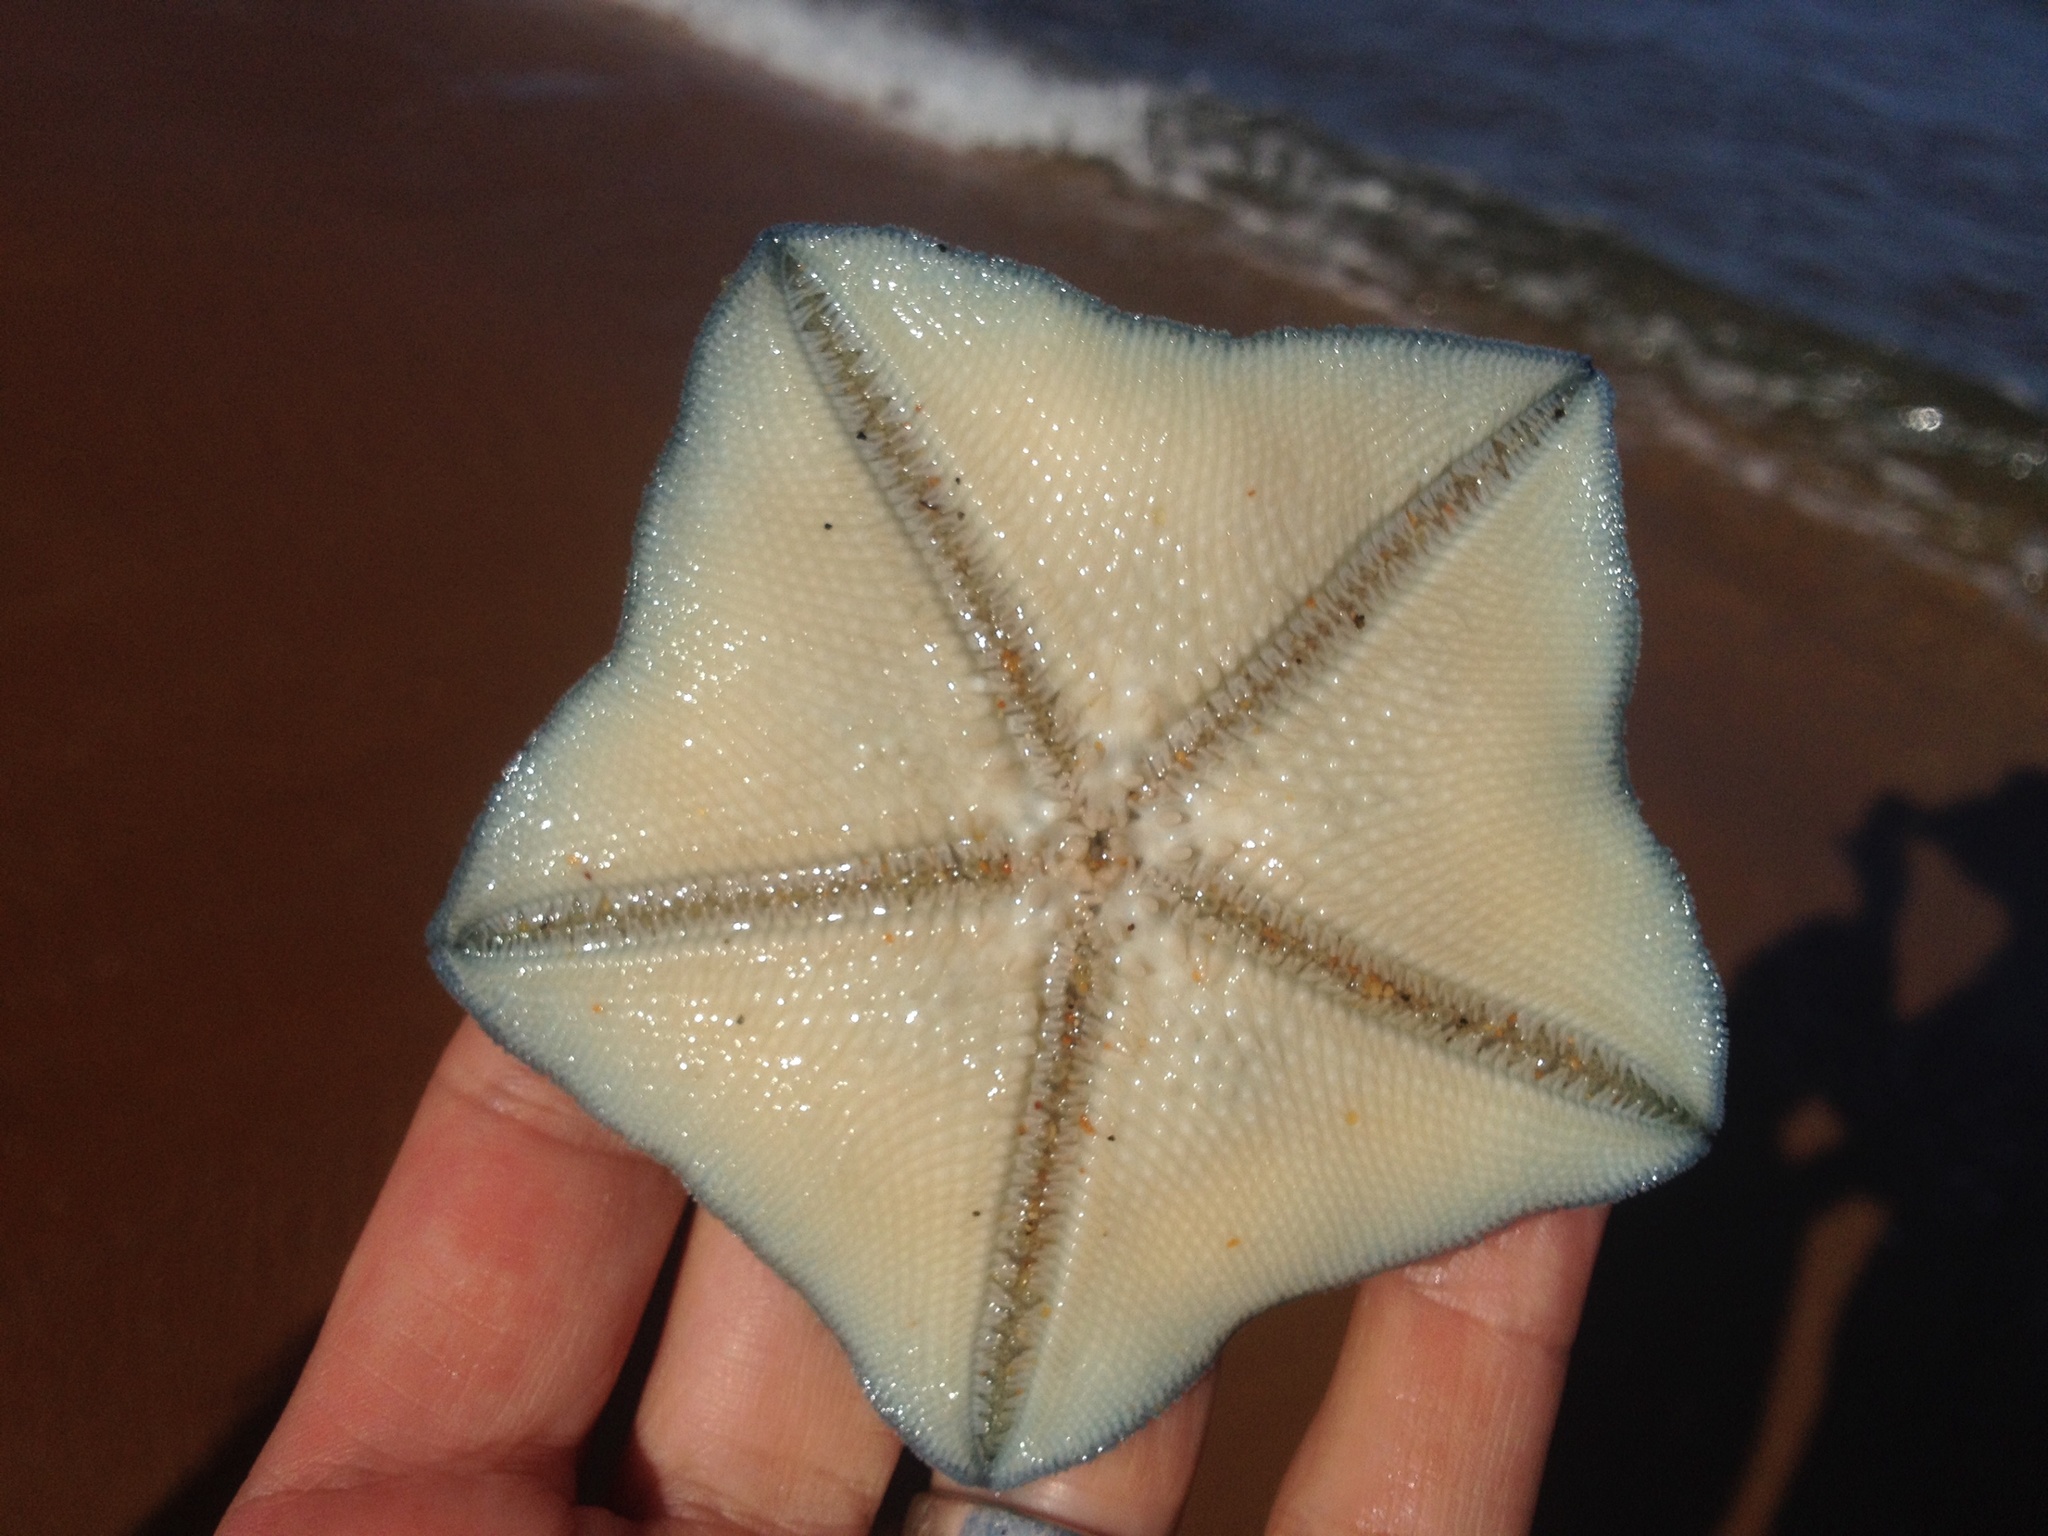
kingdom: Animalia
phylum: Echinodermata
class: Asteroidea
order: Valvatida
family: Asterinidae
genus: Patiriella
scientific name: Patiriella regularis
